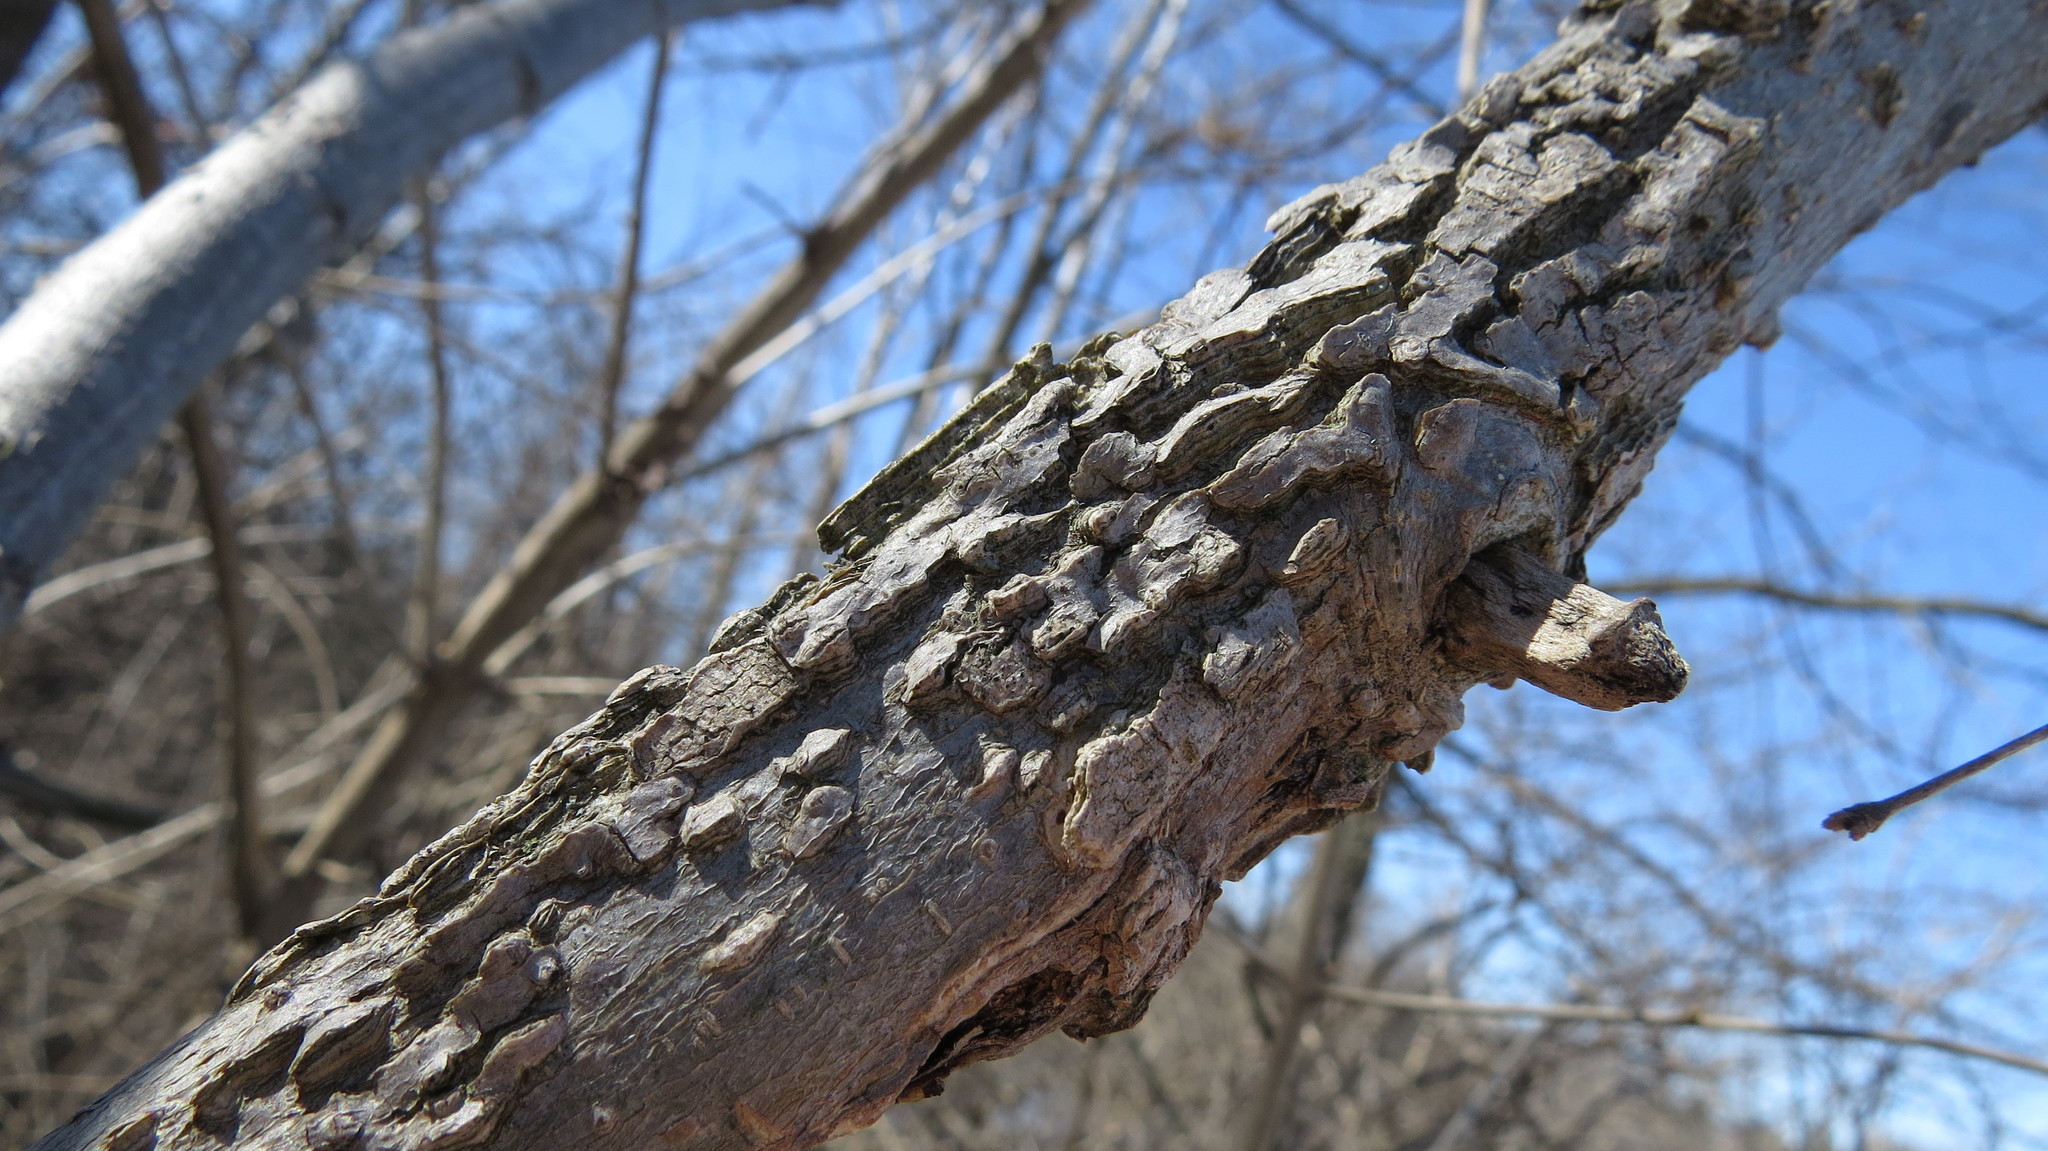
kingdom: Plantae
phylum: Tracheophyta
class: Magnoliopsida
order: Rosales
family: Cannabaceae
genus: Celtis
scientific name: Celtis occidentalis
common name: Common hackberry
